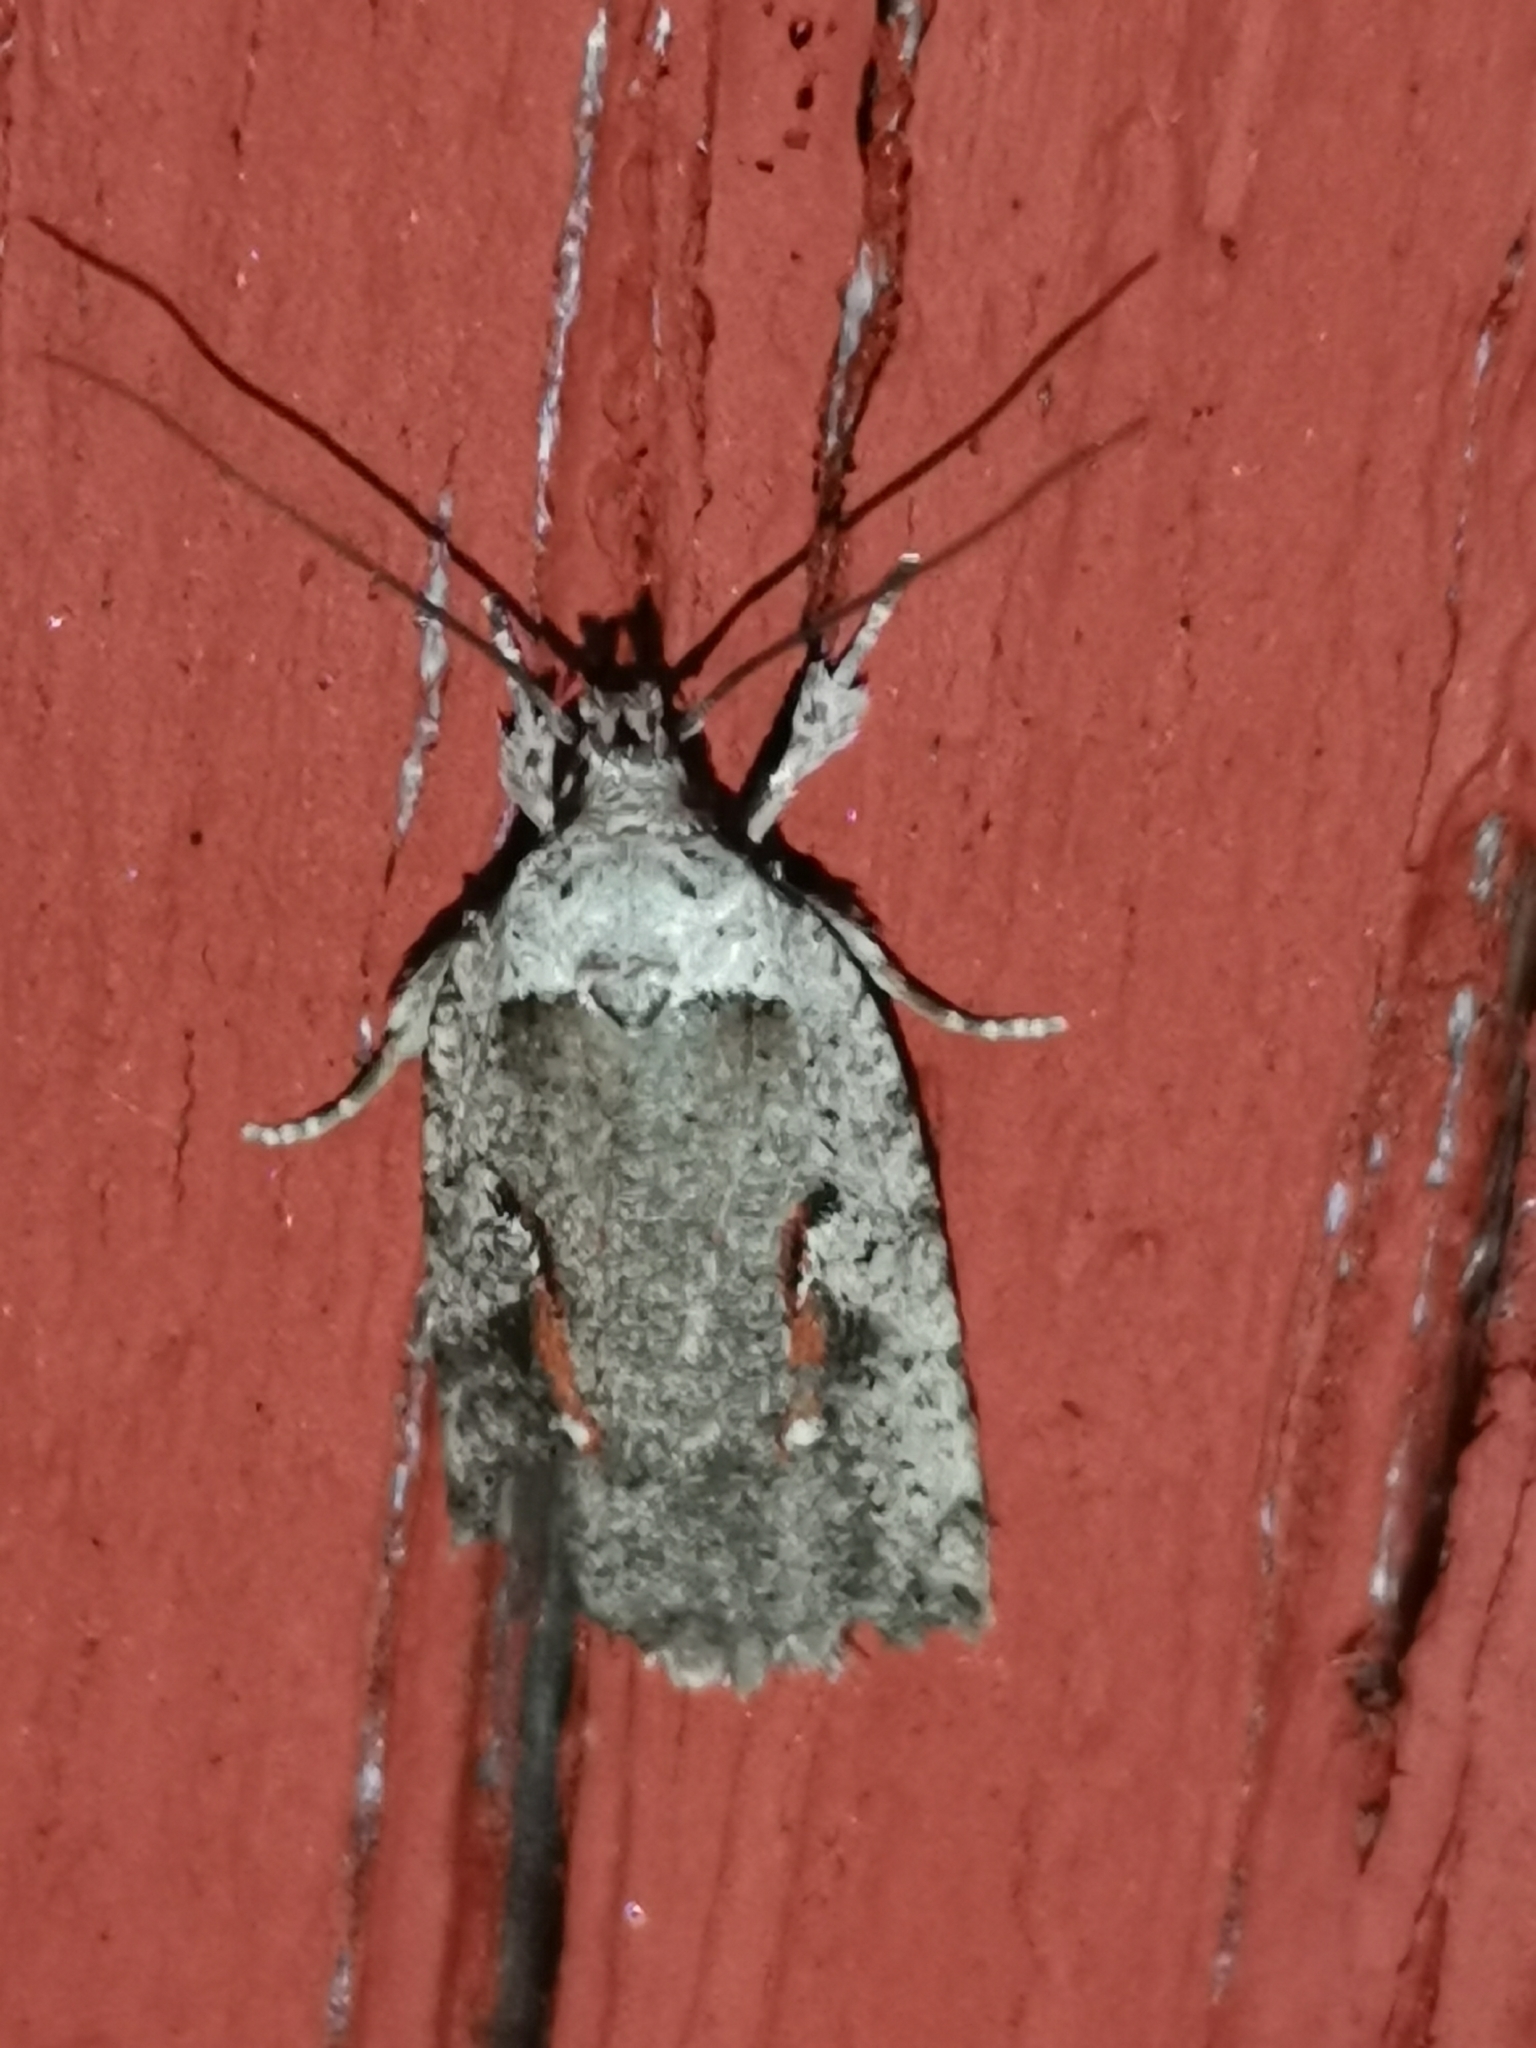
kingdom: Animalia
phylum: Arthropoda
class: Insecta
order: Lepidoptera
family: Depressariidae
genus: Agonopterix
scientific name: Agonopterix ocellana
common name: Red-letter flat-body
